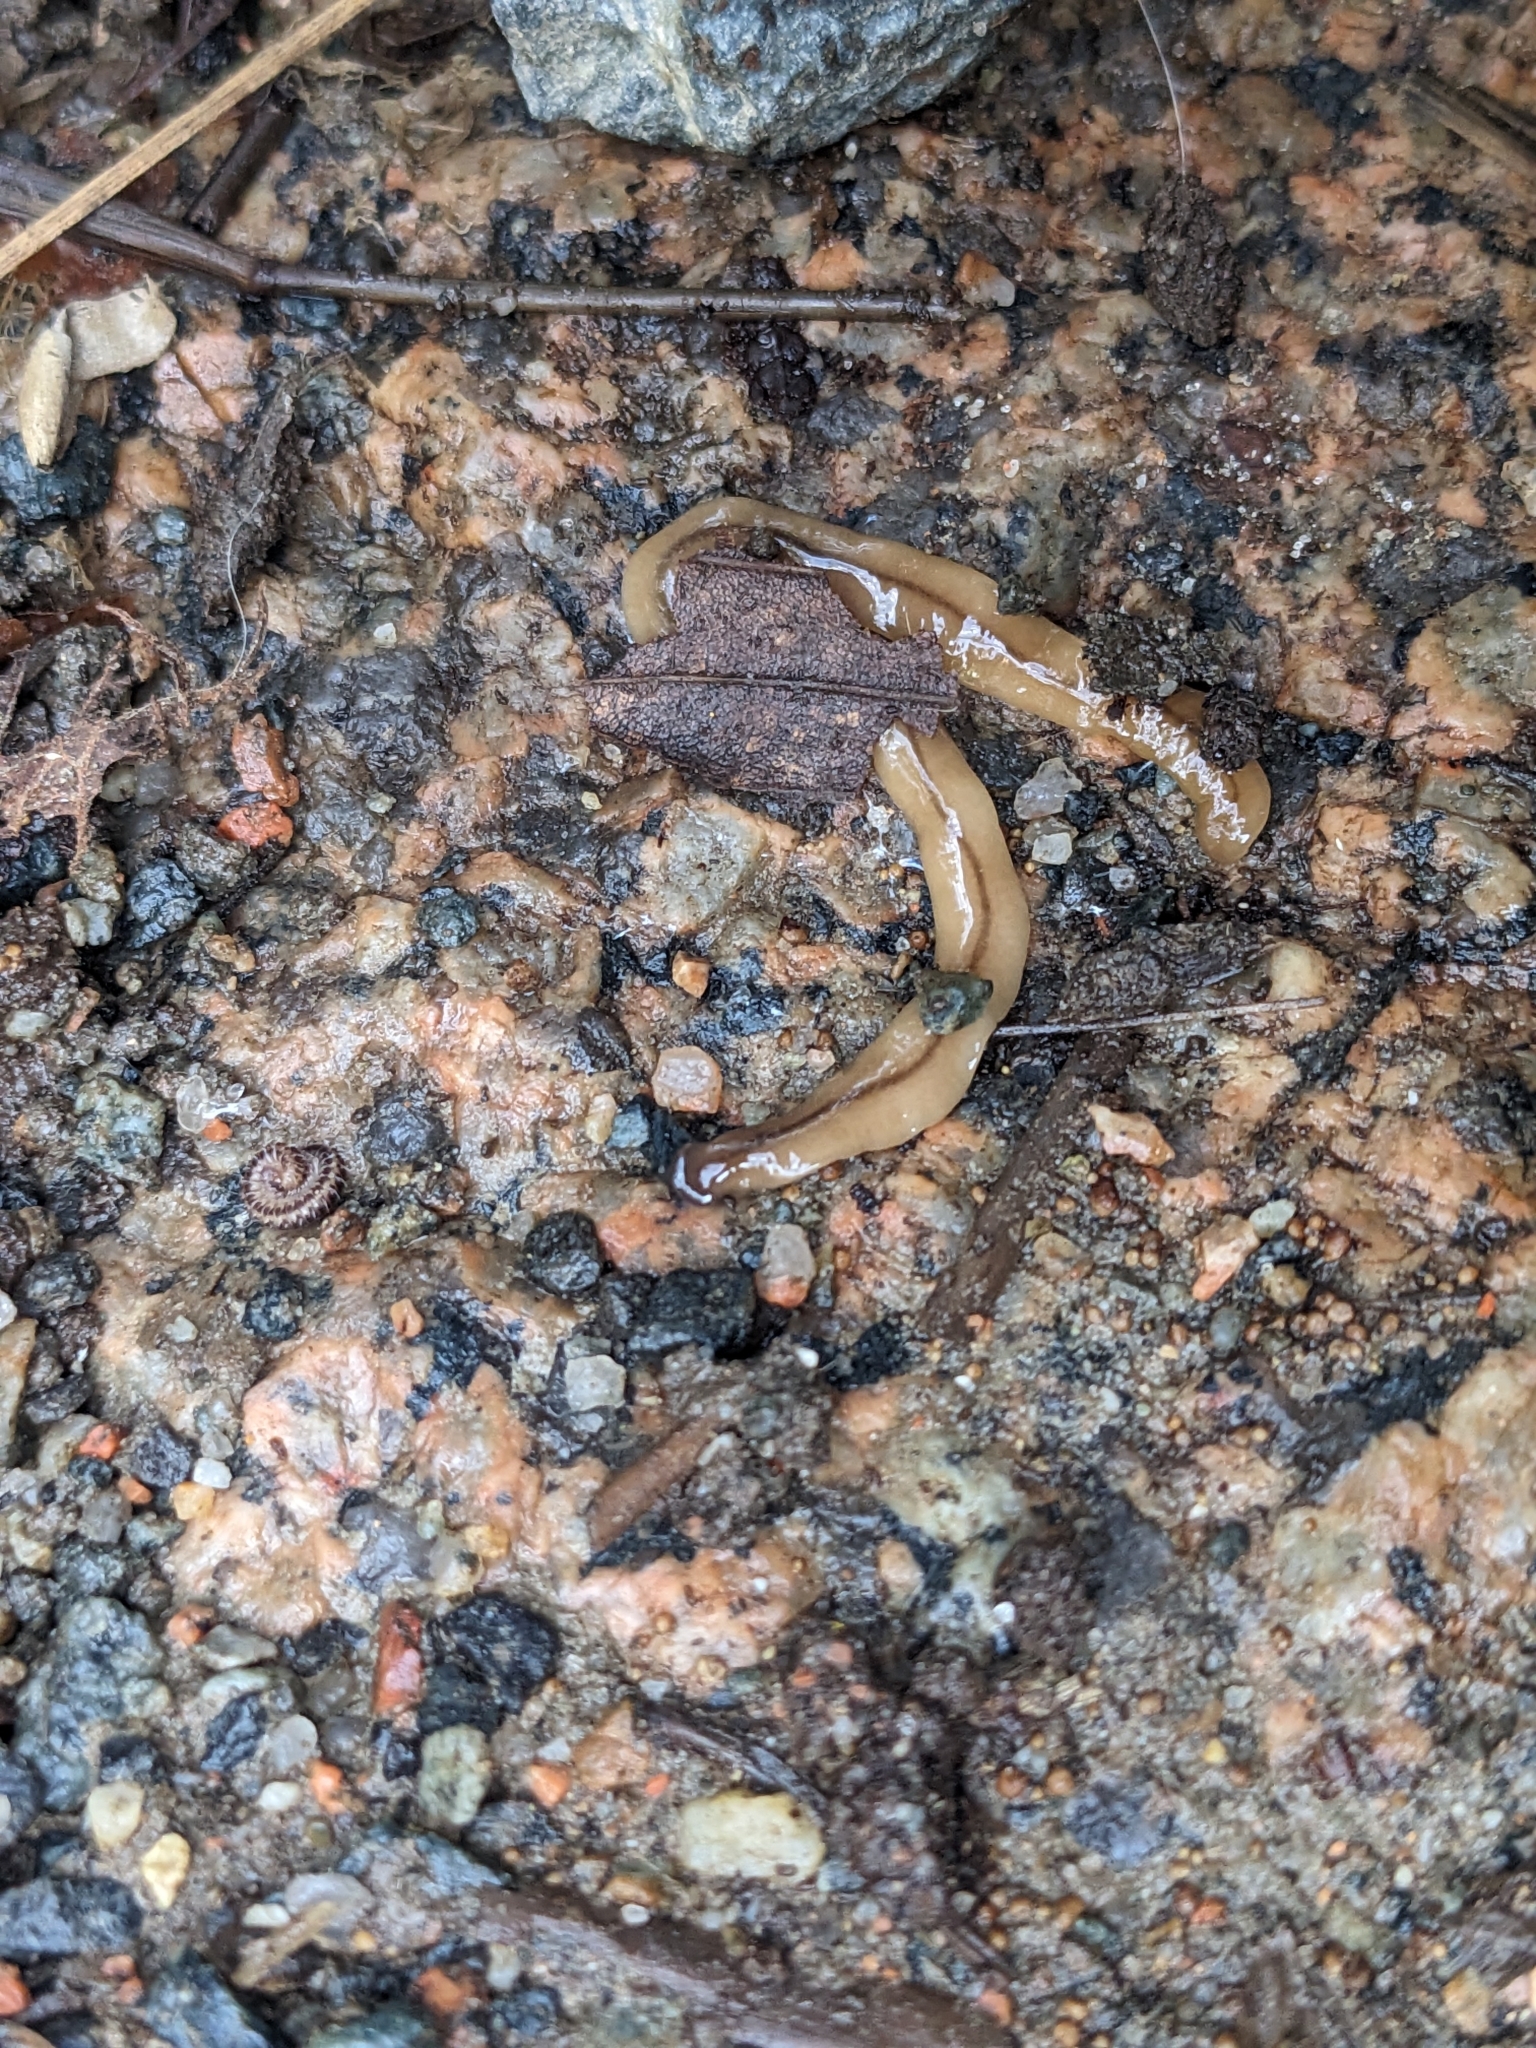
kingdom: Animalia
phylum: Platyhelminthes
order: Tricladida
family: Geoplanidae
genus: Bipalium
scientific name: Bipalium adventitium
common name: Land planarian
